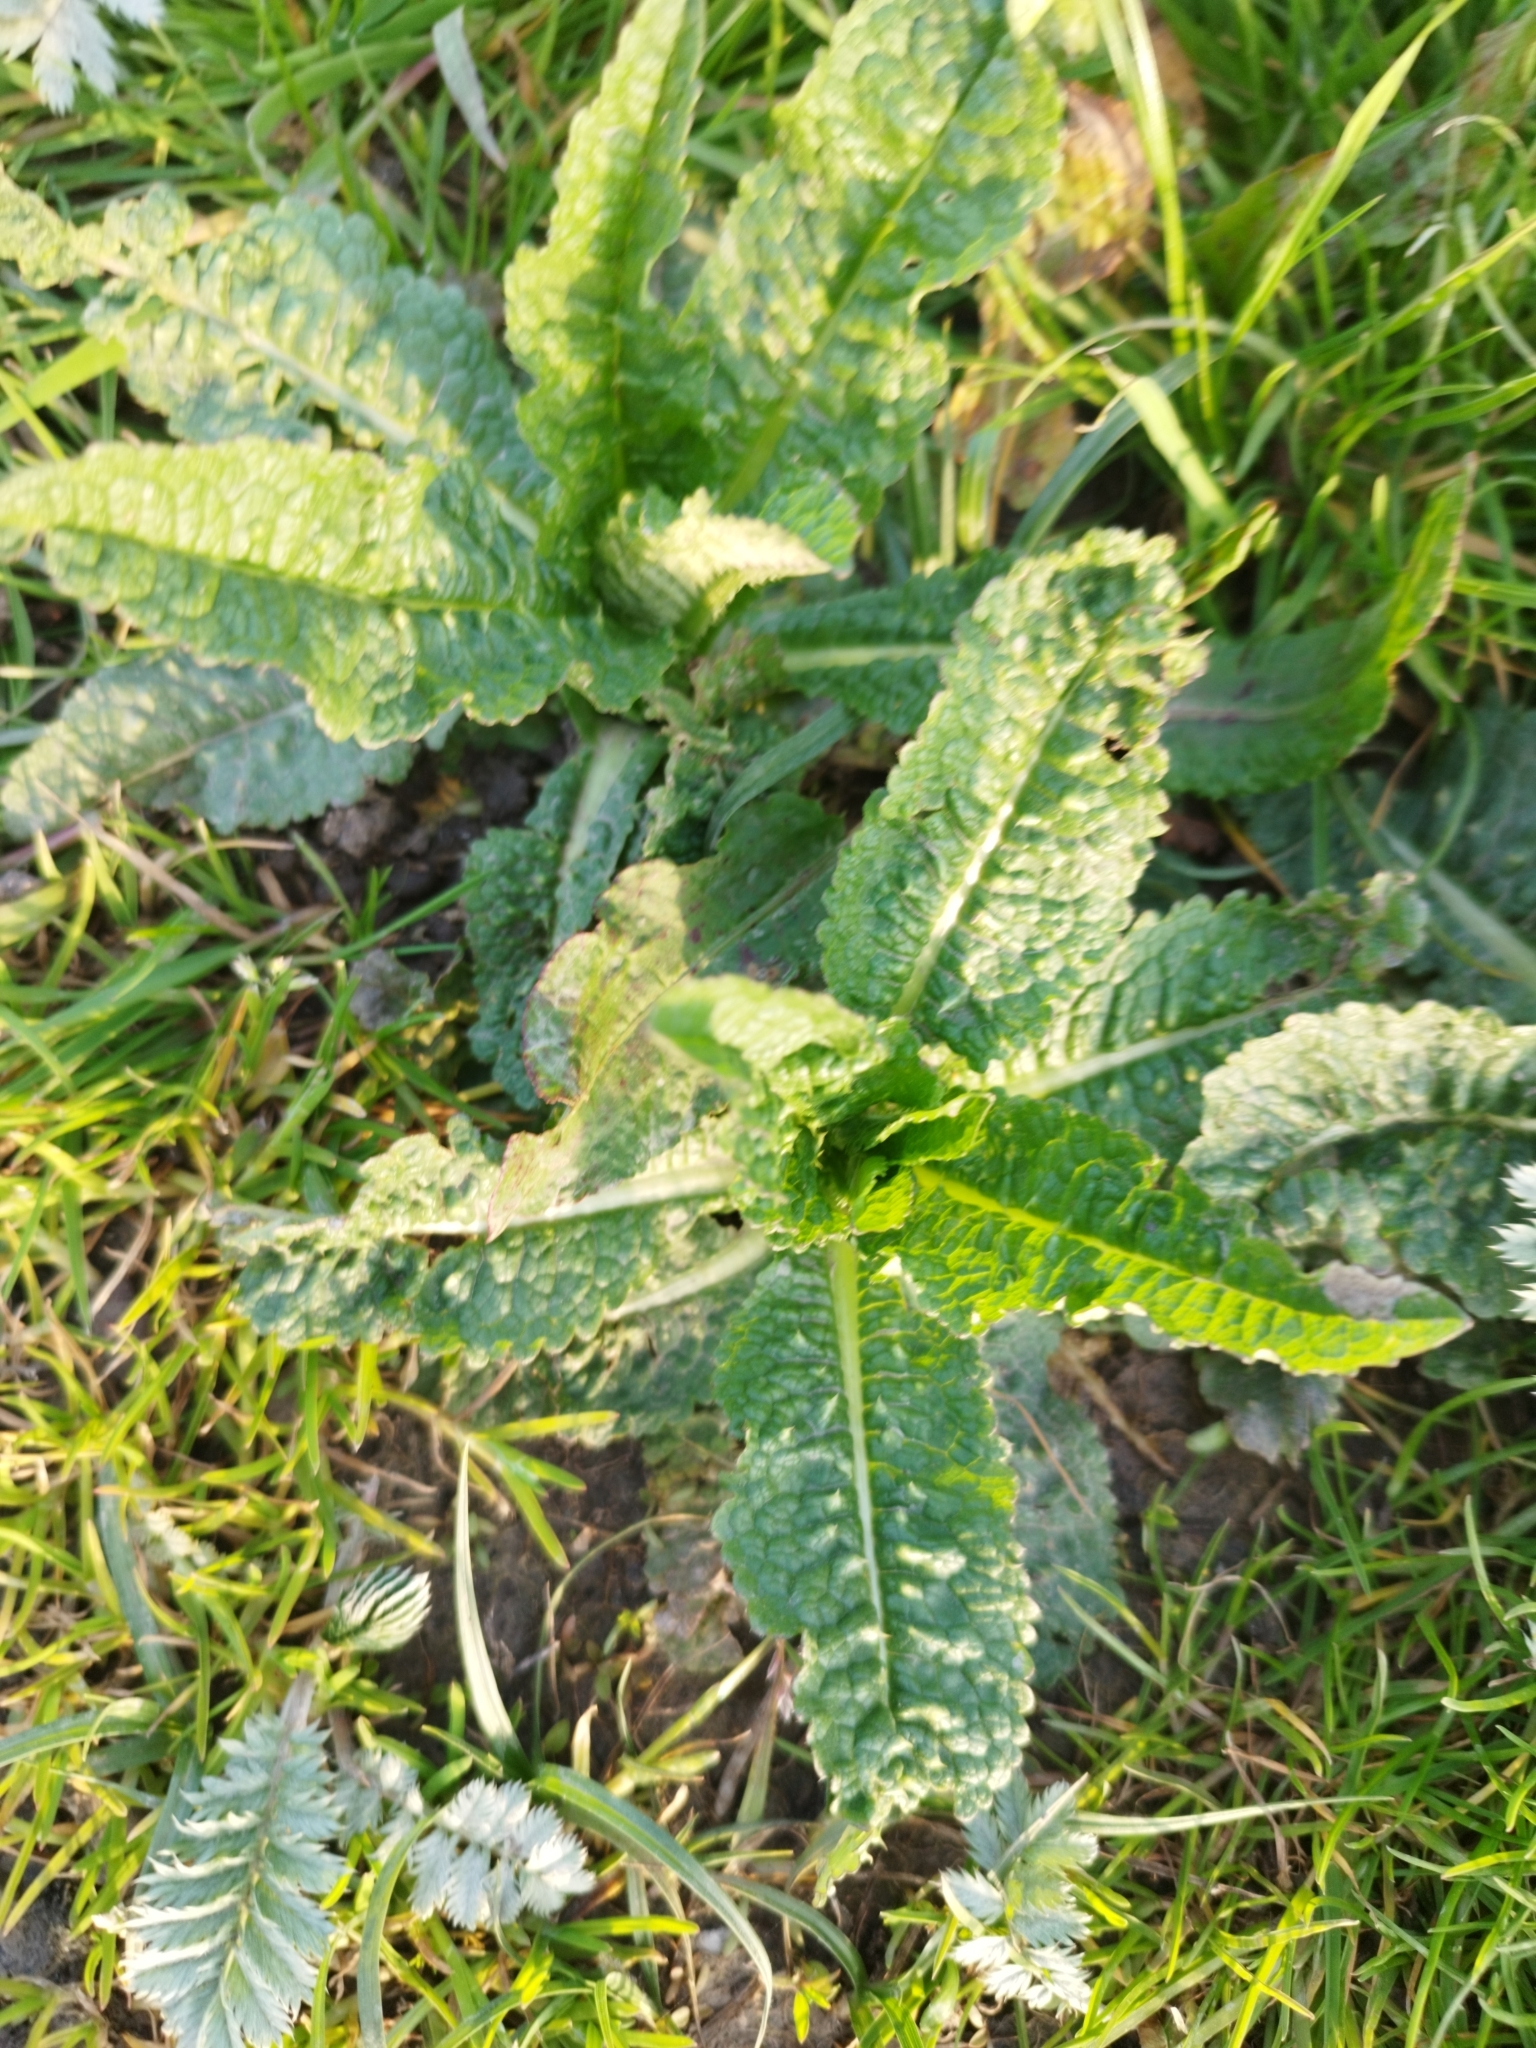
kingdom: Plantae
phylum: Tracheophyta
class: Magnoliopsida
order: Dipsacales
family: Caprifoliaceae
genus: Dipsacus
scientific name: Dipsacus fullonum
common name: Teasel
